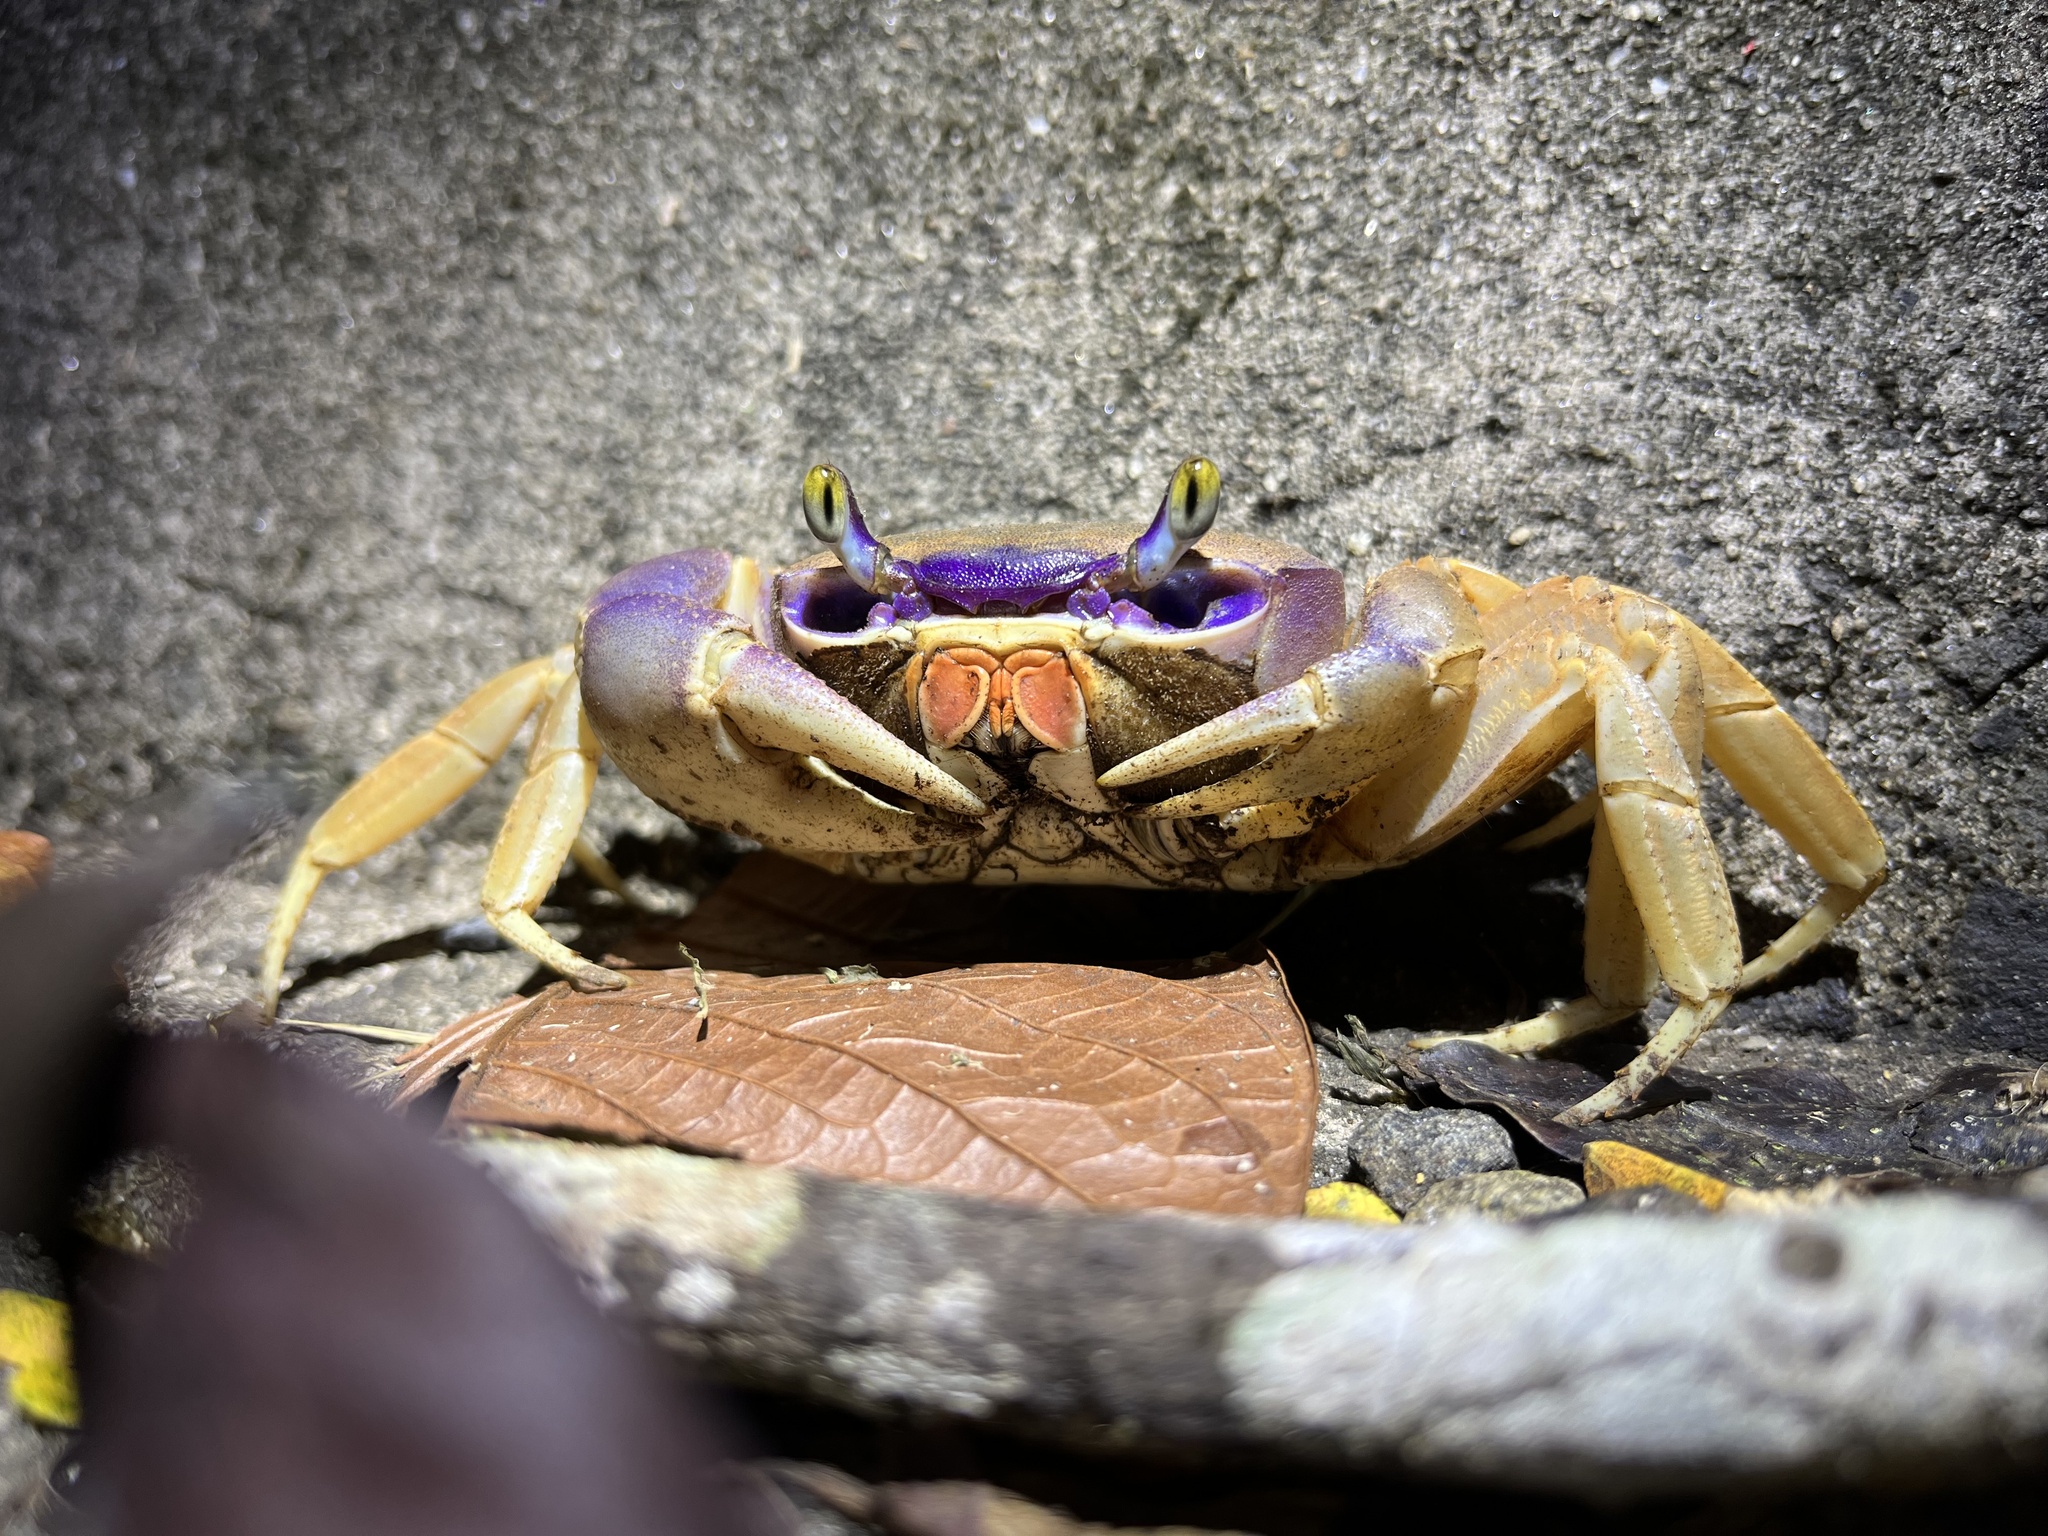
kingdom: Animalia
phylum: Arthropoda
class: Malacostraca
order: Decapoda
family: Gecarcinidae
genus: Cardisoma
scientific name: Cardisoma guanhumi
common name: Great land crab
